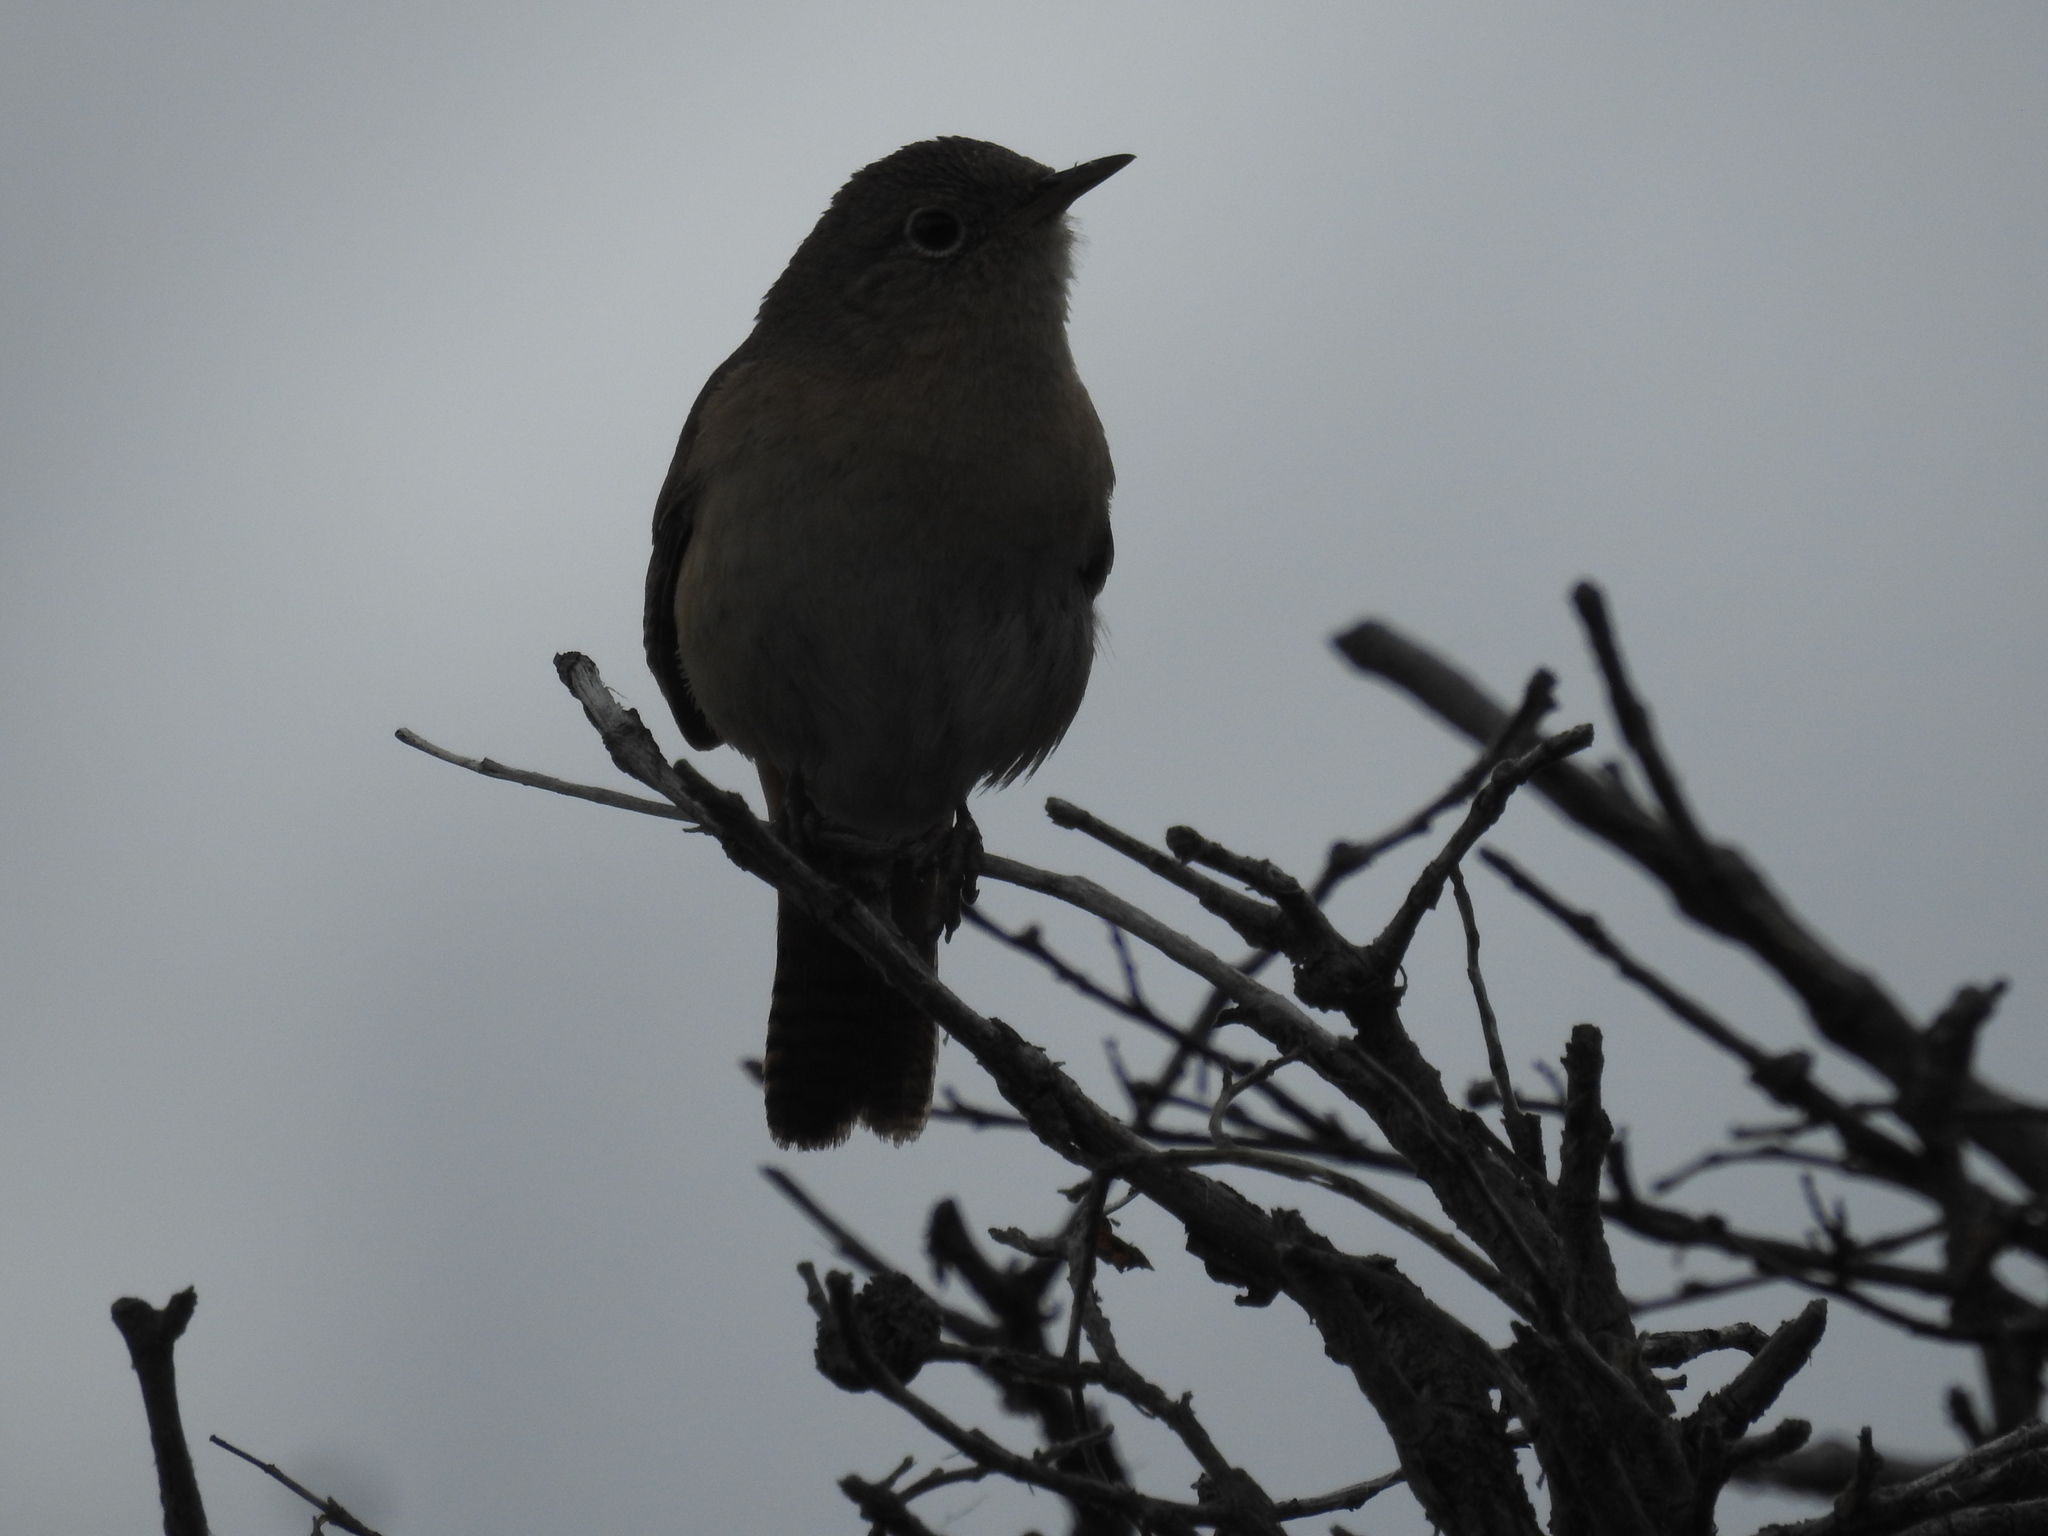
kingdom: Animalia
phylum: Chordata
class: Aves
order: Passeriformes
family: Troglodytidae
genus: Troglodytes
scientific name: Troglodytes aedon
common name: House wren
